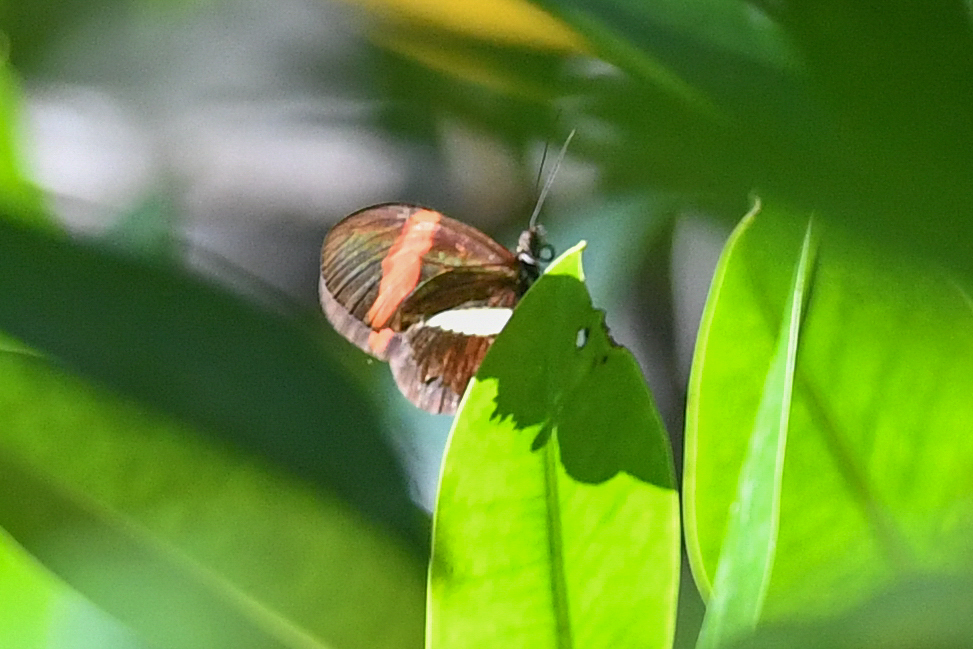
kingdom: Animalia
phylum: Arthropoda
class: Insecta
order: Lepidoptera
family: Nymphalidae
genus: Heliconius
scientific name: Heliconius melpomene
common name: Postman
